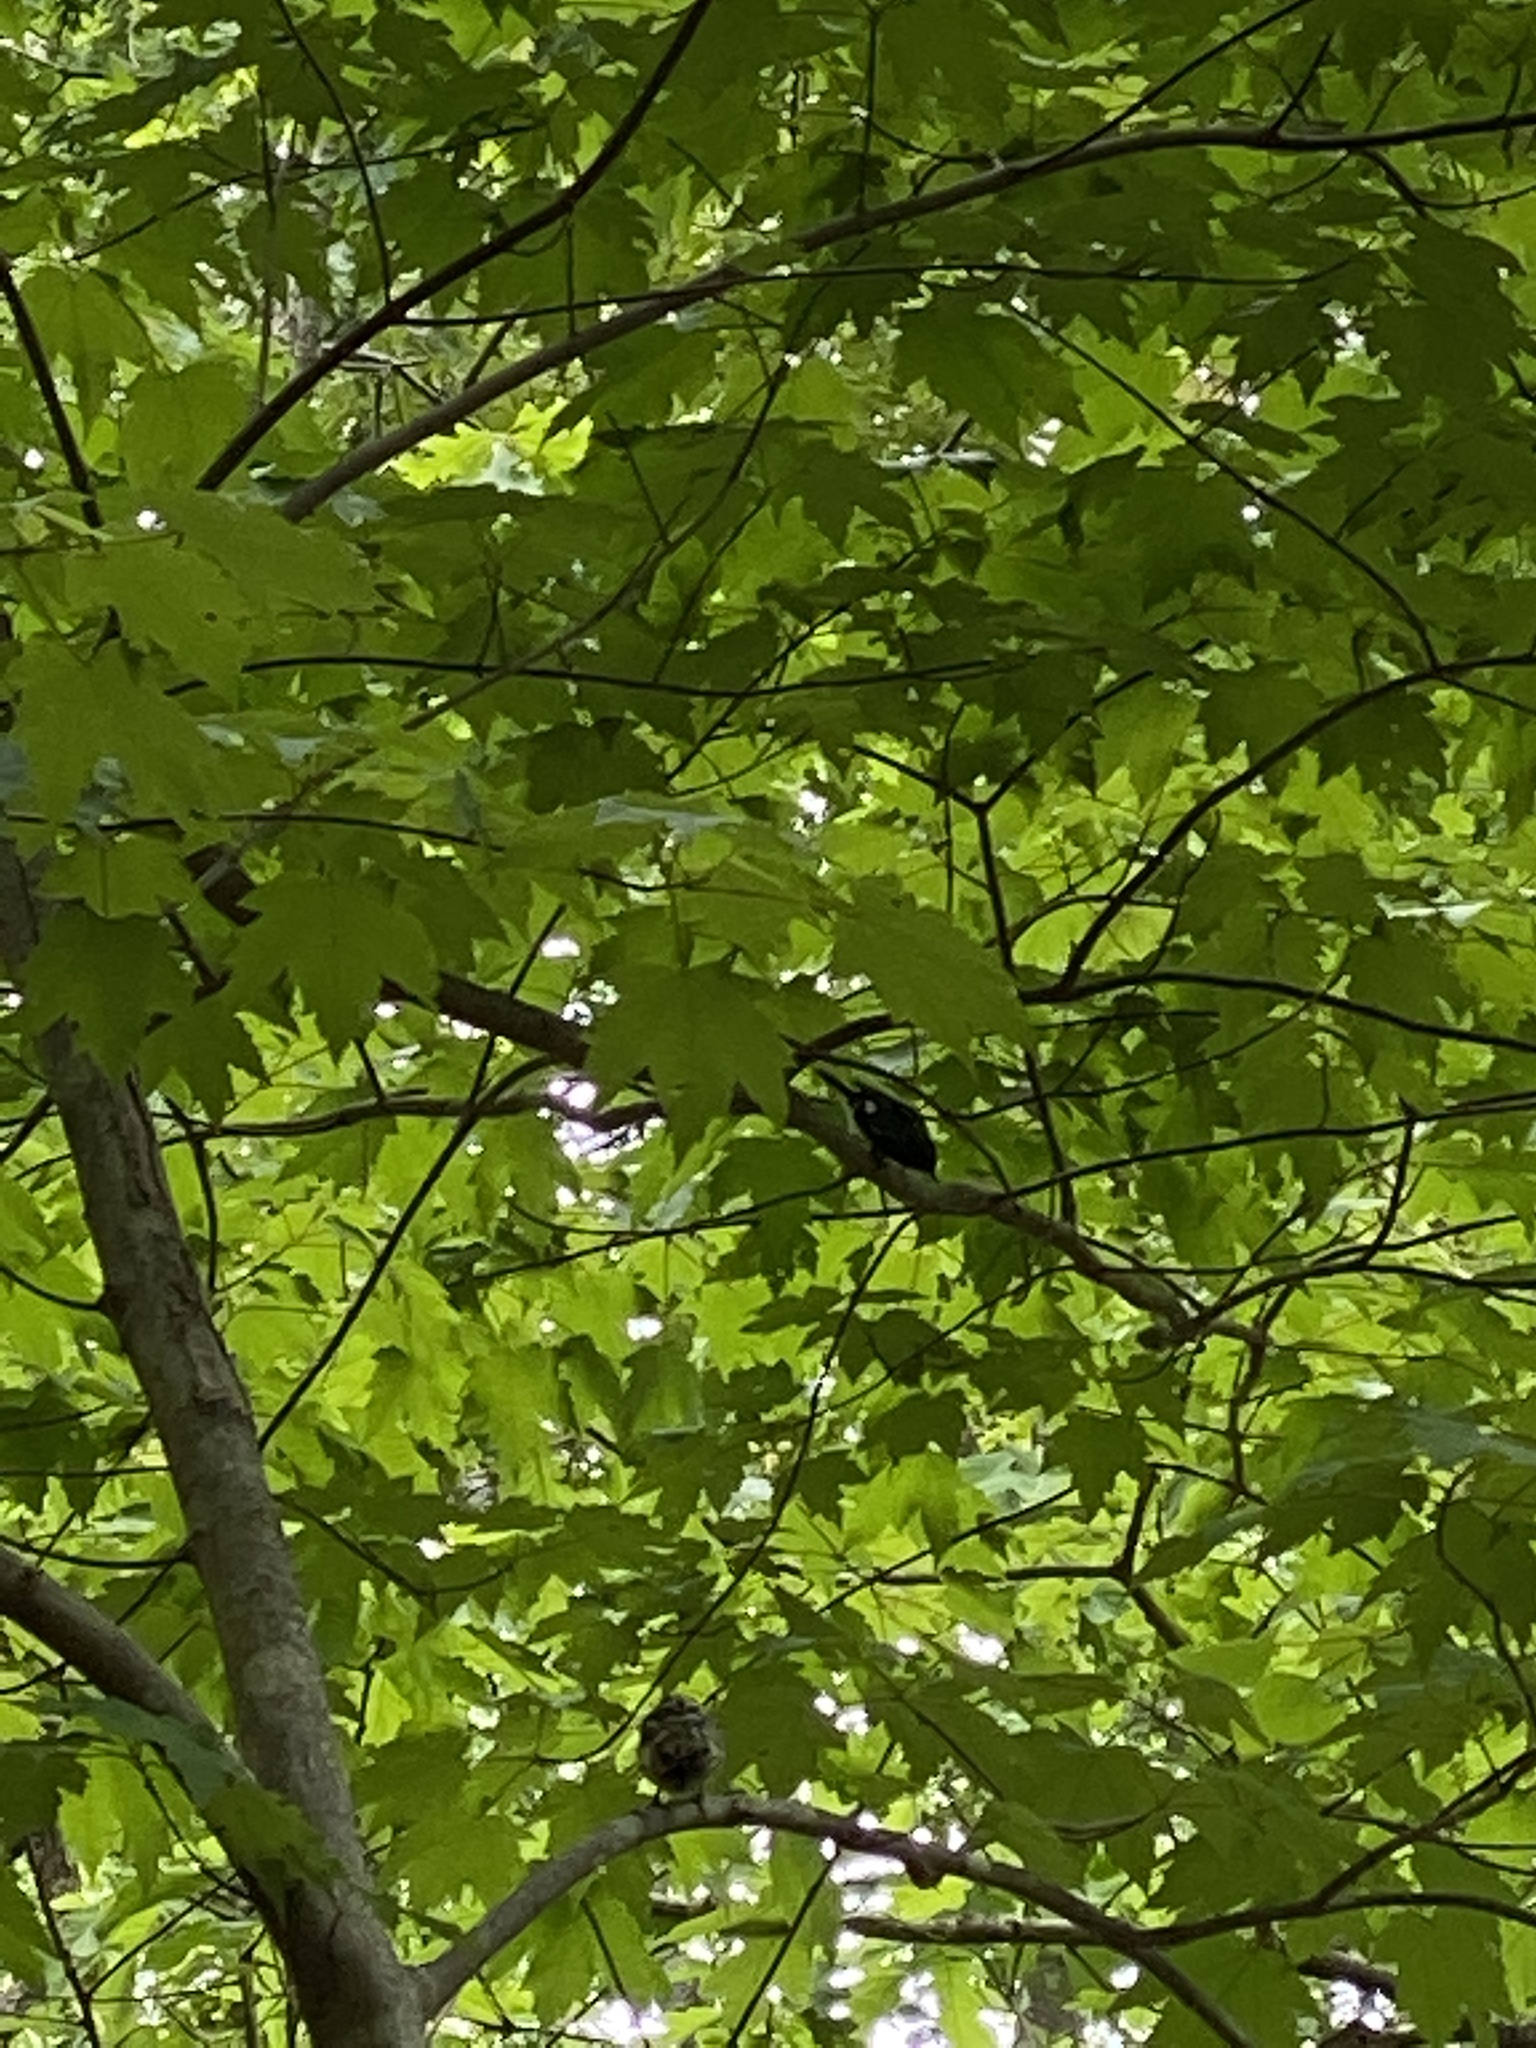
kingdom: Animalia
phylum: Chordata
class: Aves
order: Passeriformes
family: Parulidae
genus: Setophaga
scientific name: Setophaga caerulescens
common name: Black-throated blue warbler
